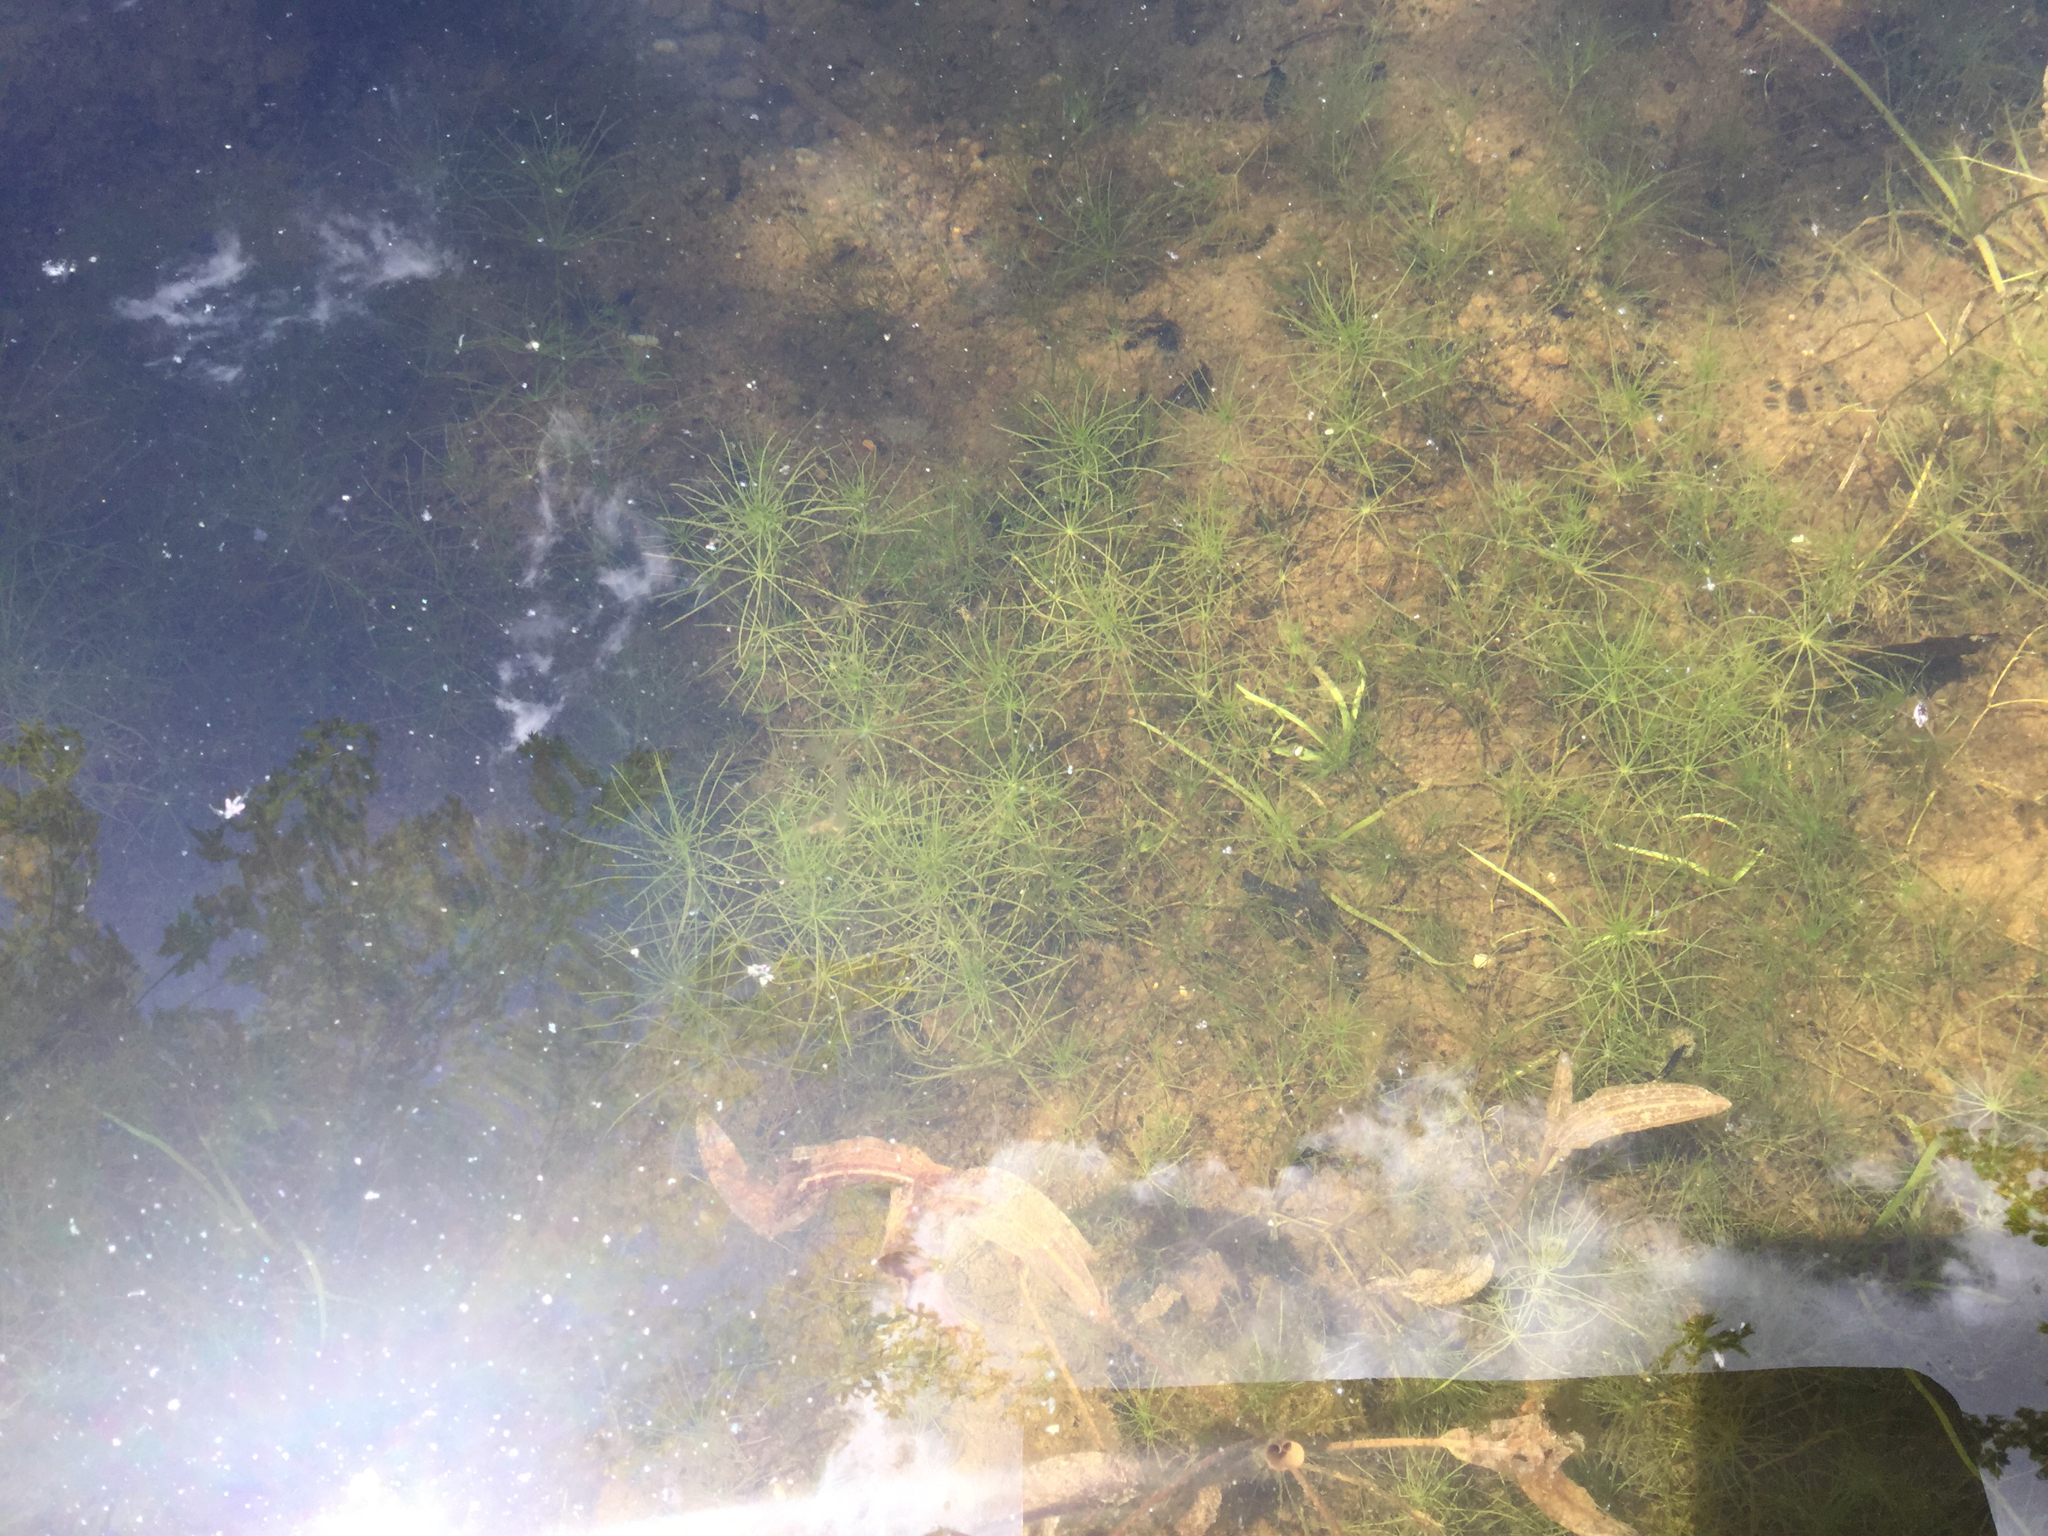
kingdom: Plantae
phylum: Charophyta
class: Charophyceae
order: Charales
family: Characeae
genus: Chara
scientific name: Chara
